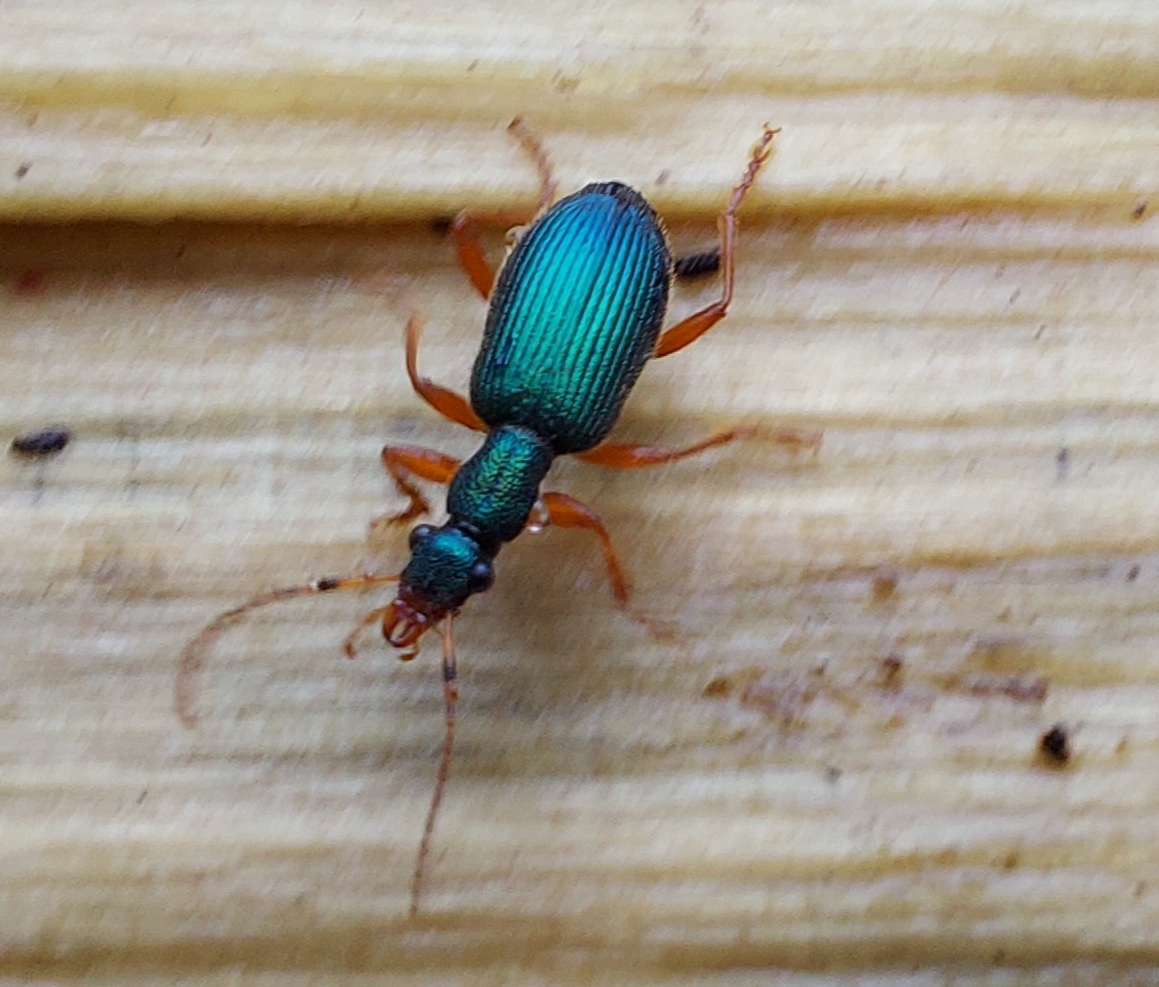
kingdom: Animalia
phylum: Arthropoda
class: Insecta
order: Coleoptera
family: Carabidae
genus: Drypta
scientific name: Drypta dentata
